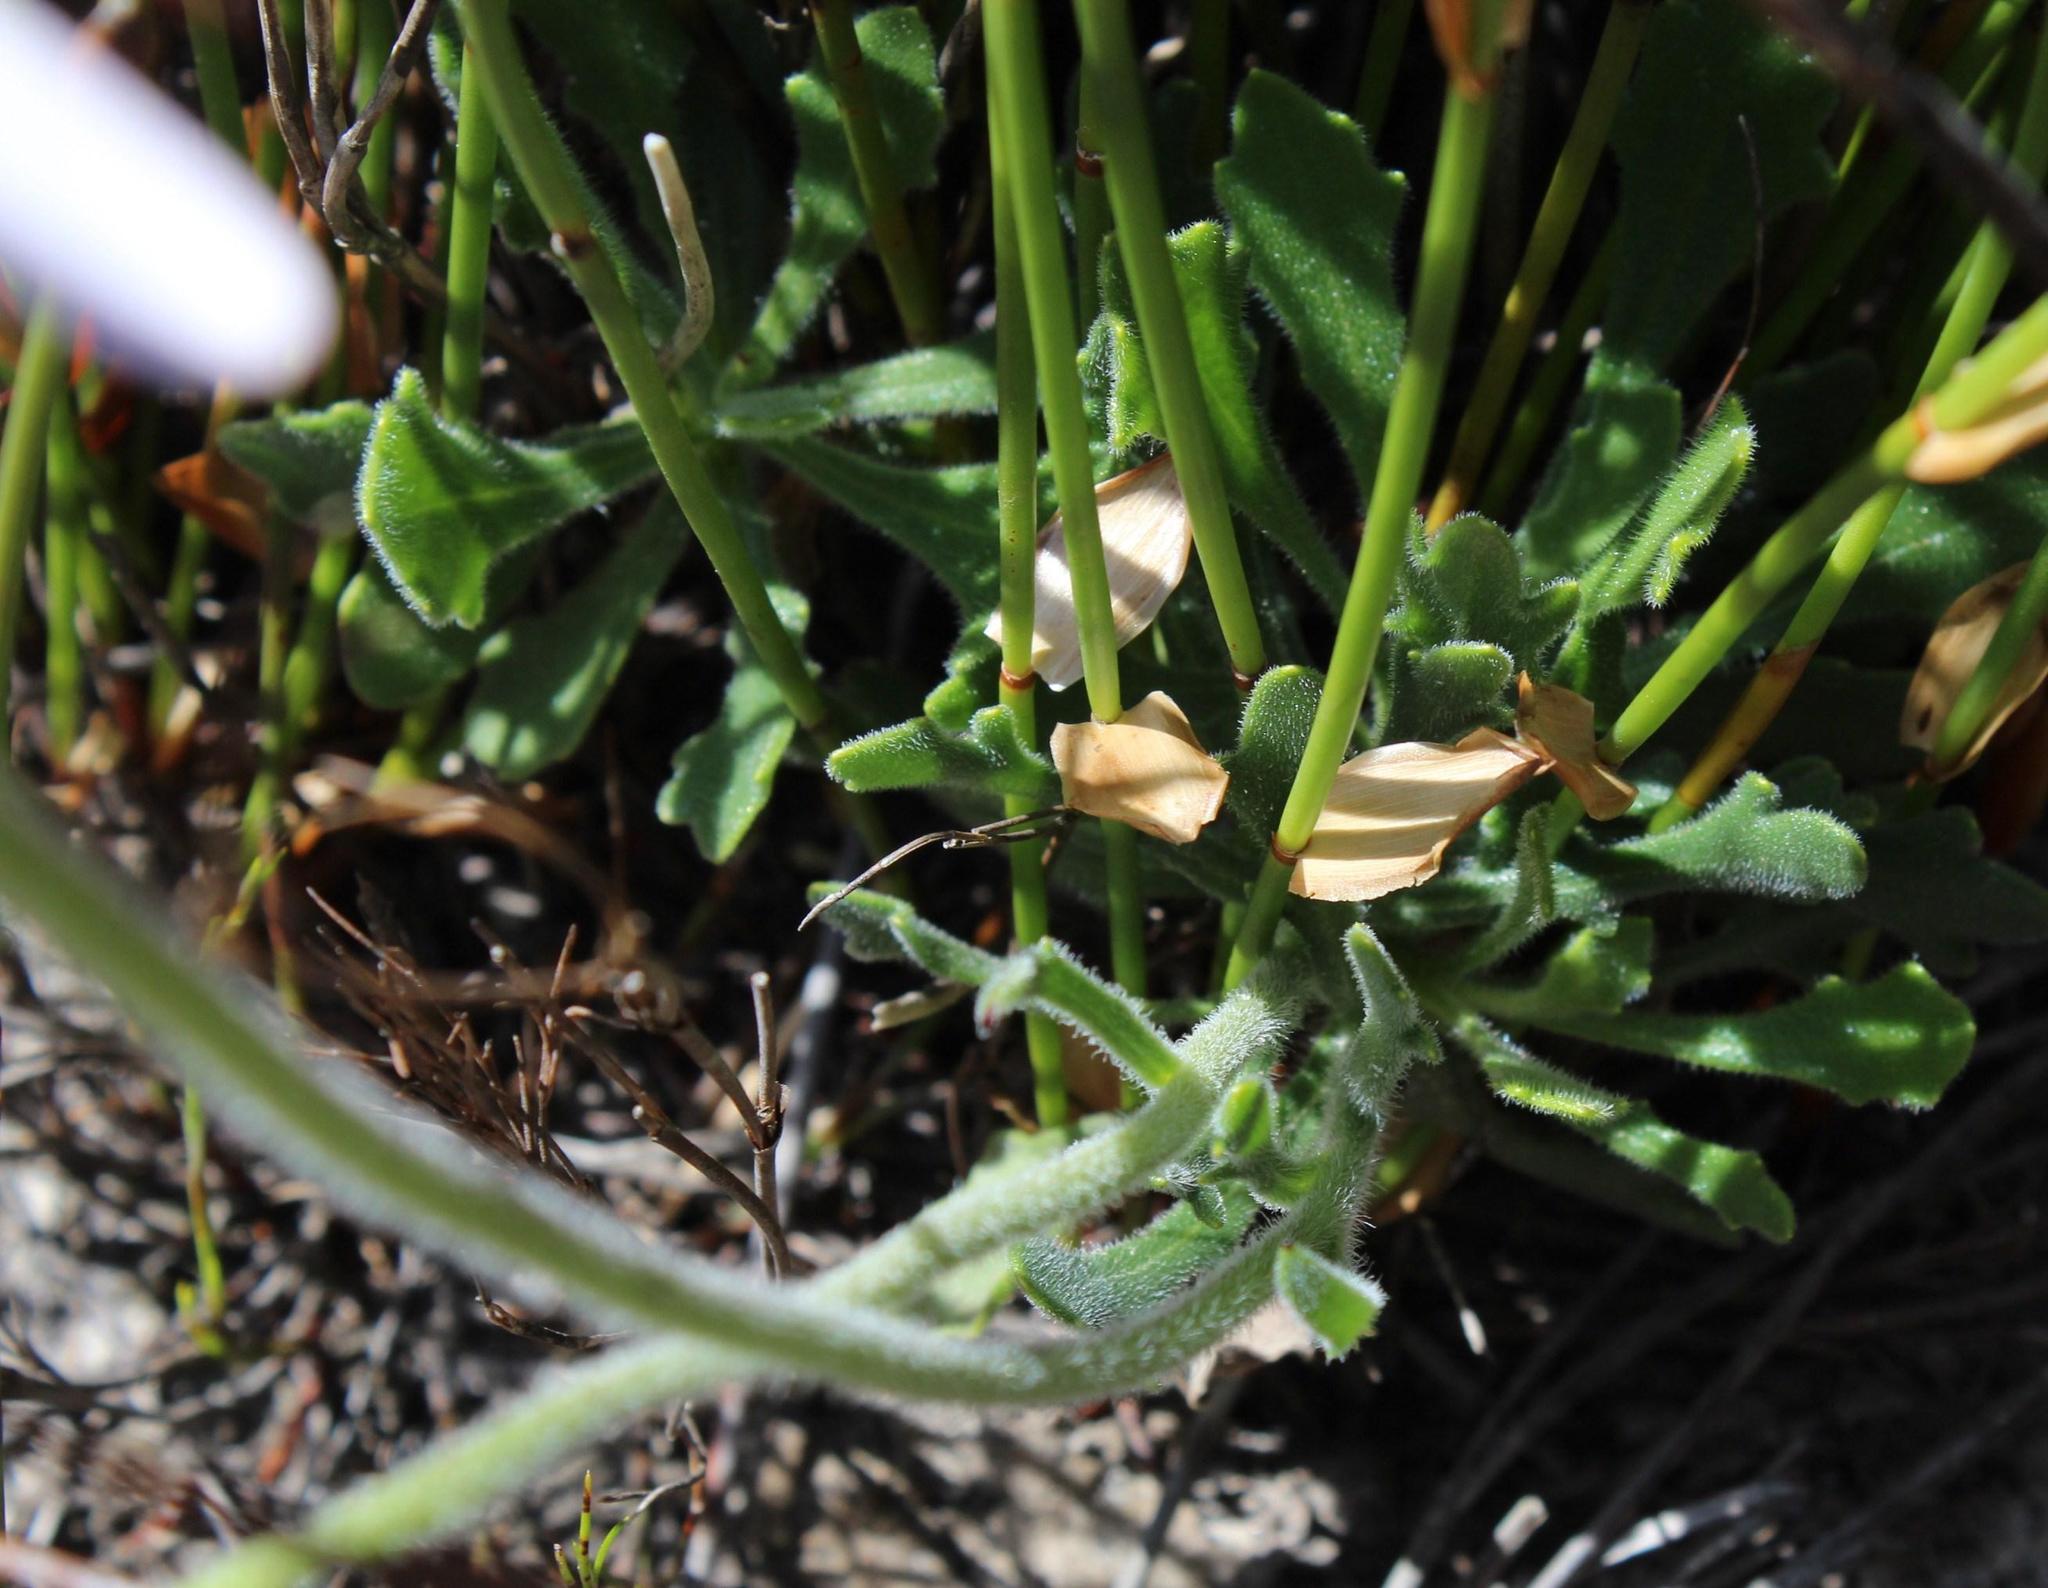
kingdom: Plantae
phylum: Tracheophyta
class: Magnoliopsida
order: Asterales
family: Asteraceae
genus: Dimorphotheca
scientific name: Dimorphotheca nudicaulis
